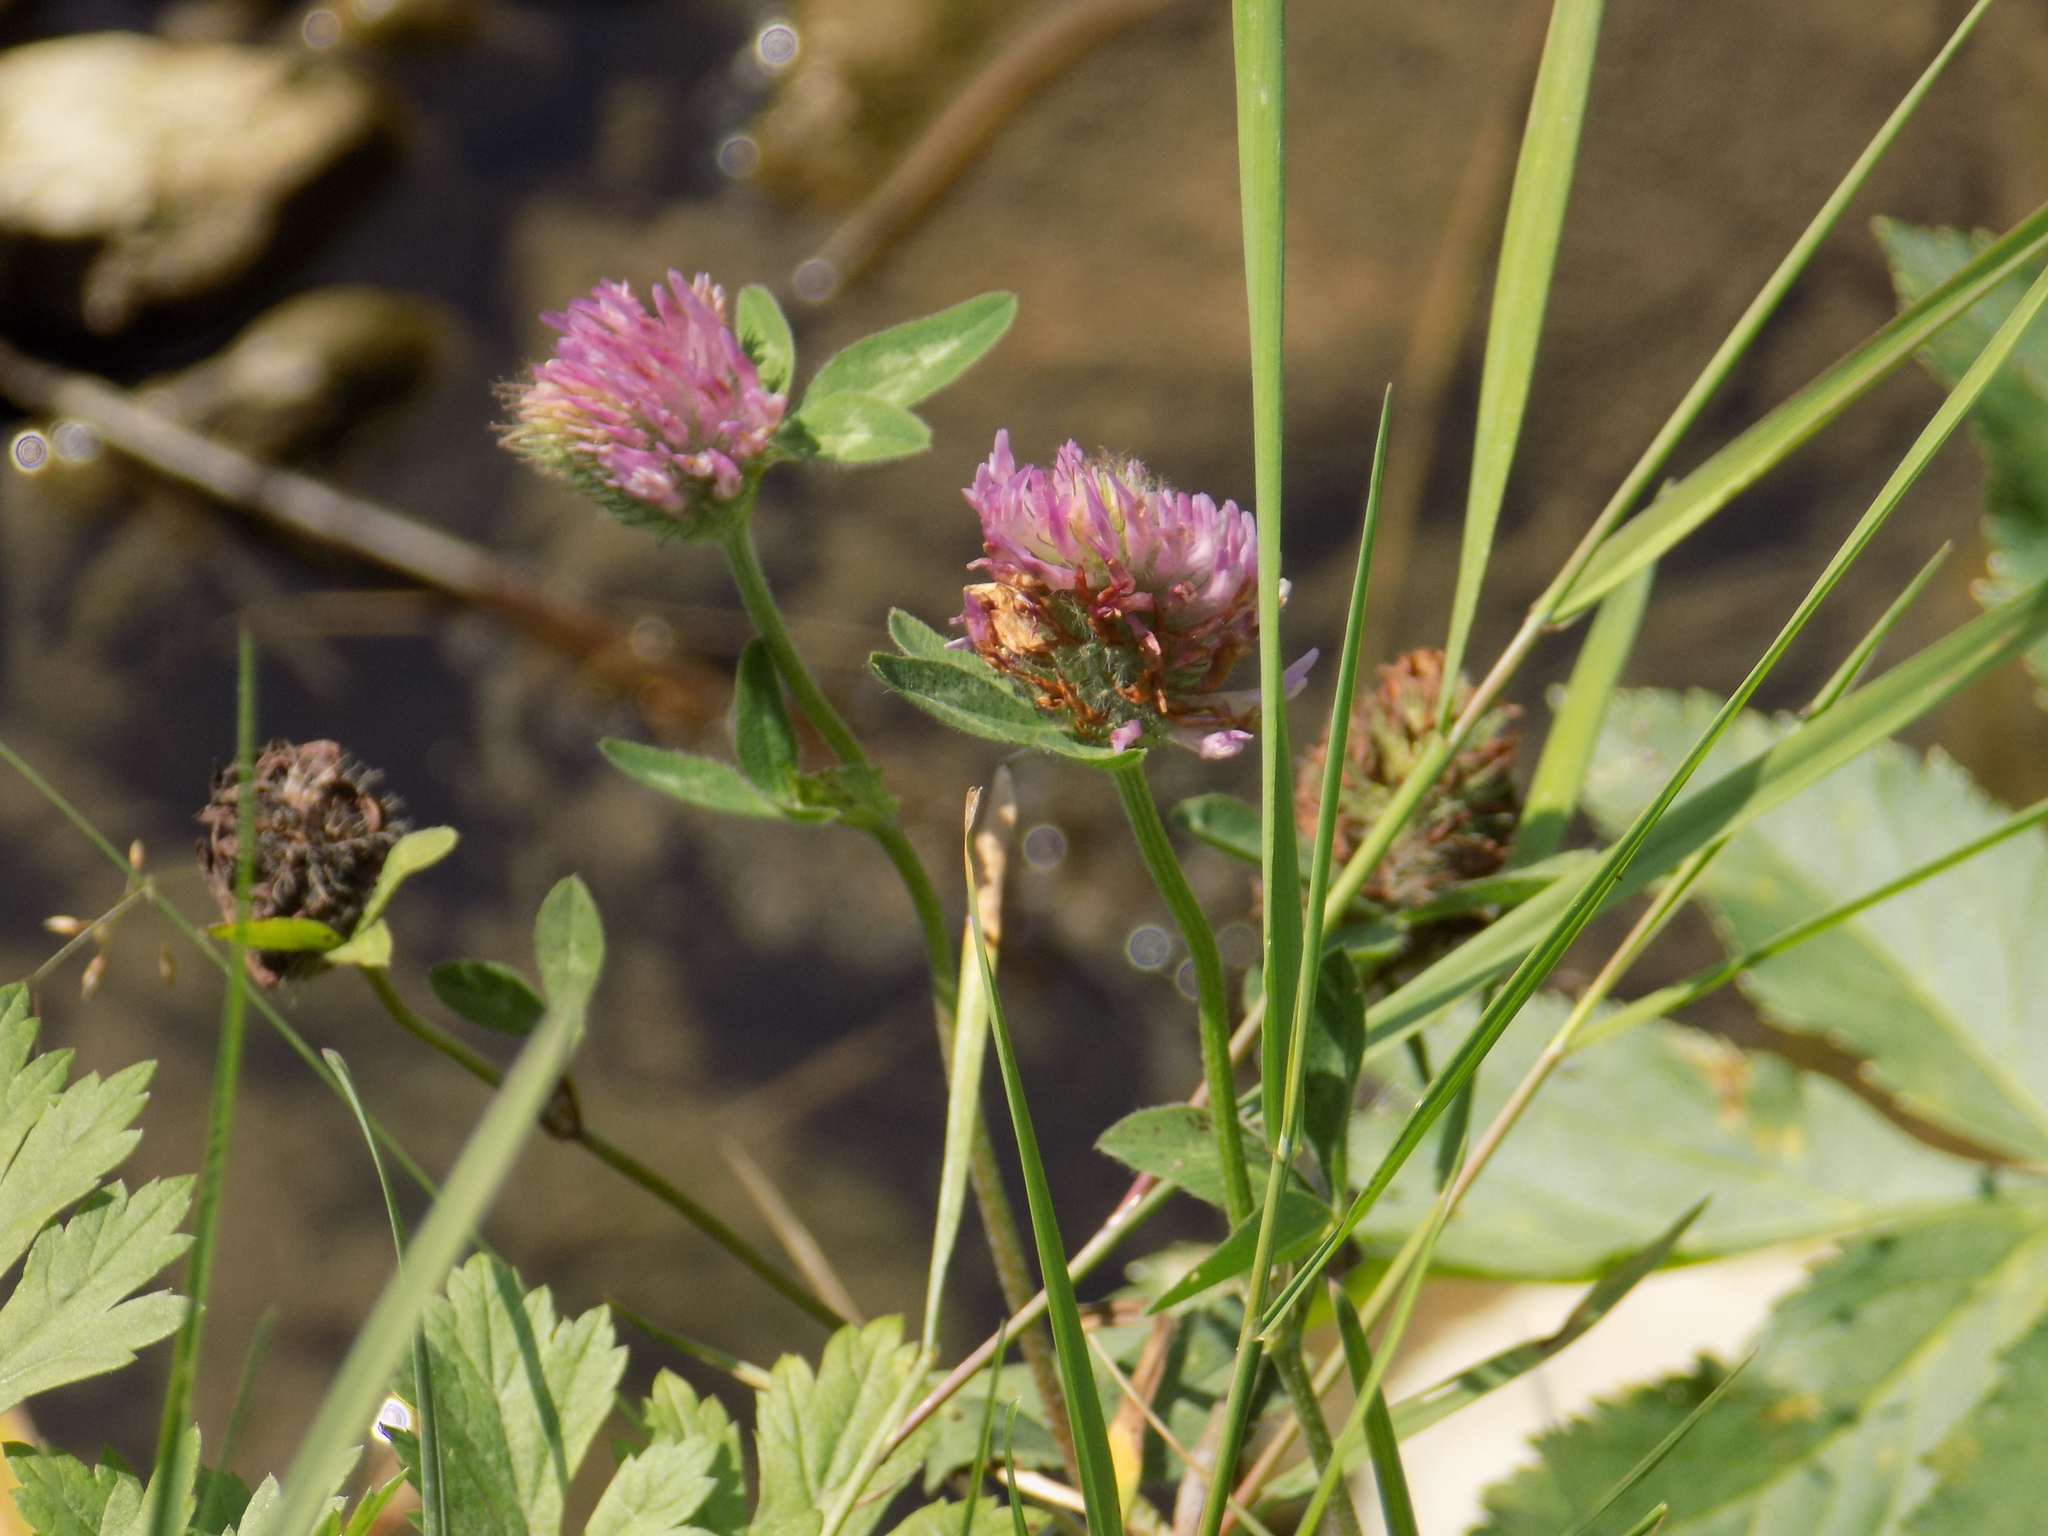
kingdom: Plantae
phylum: Tracheophyta
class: Magnoliopsida
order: Fabales
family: Fabaceae
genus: Trifolium
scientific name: Trifolium pratense
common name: Red clover
